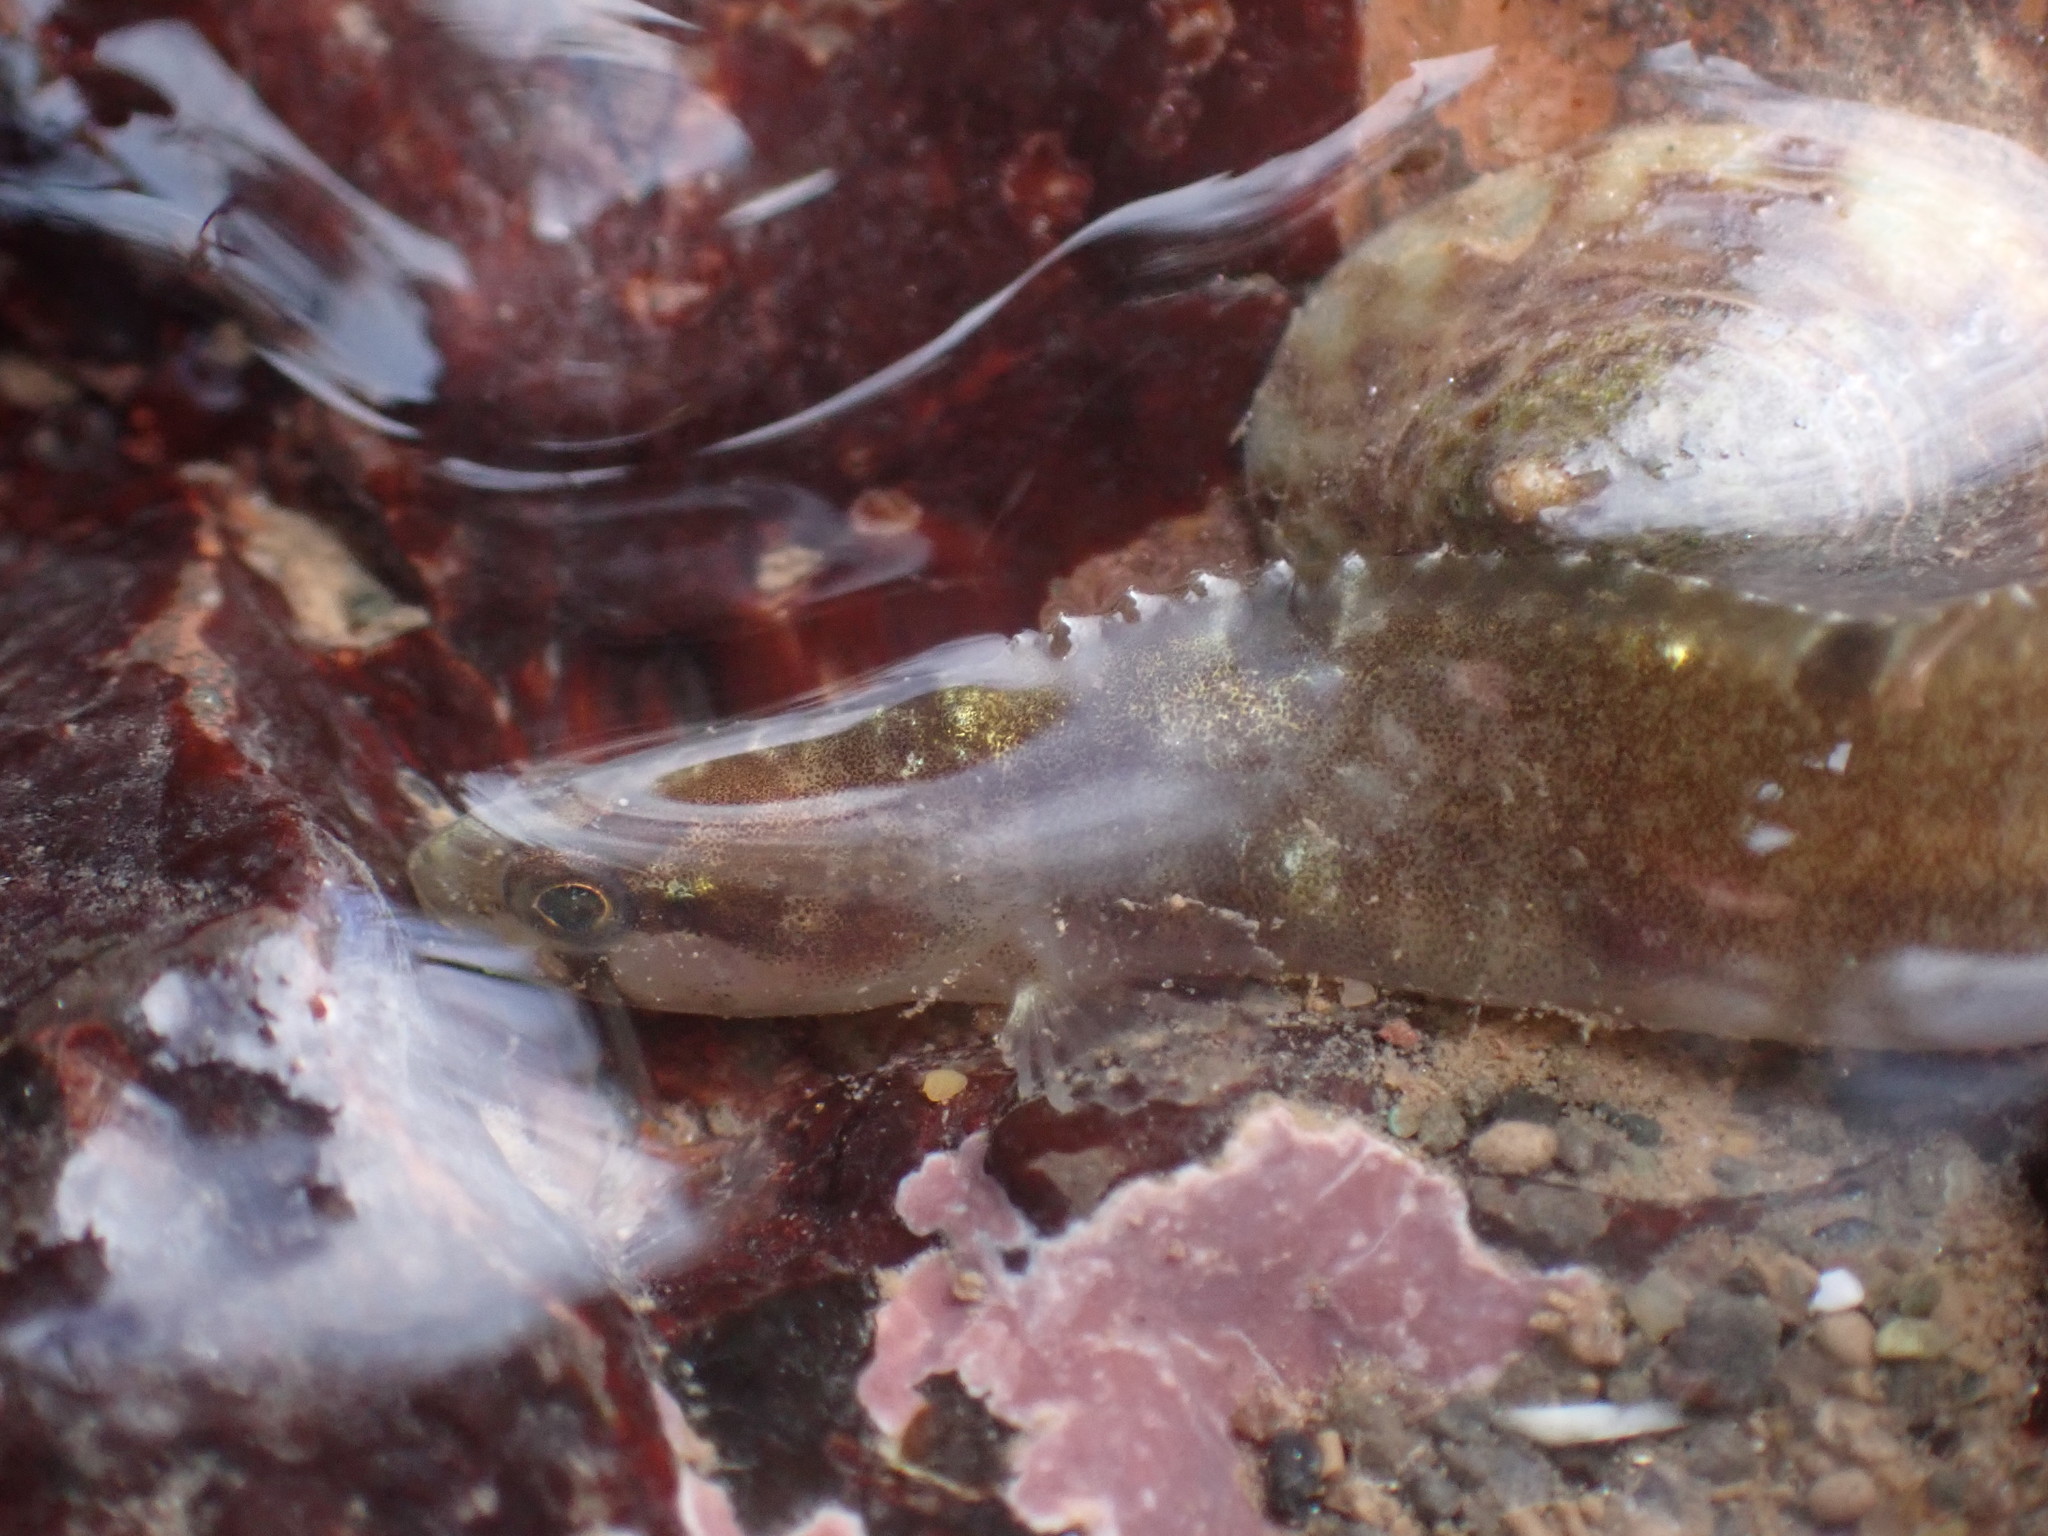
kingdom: Animalia
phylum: Chordata
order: Perciformes
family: Pholidae
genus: Pholis
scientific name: Pholis gunnellus
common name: Butterfish
